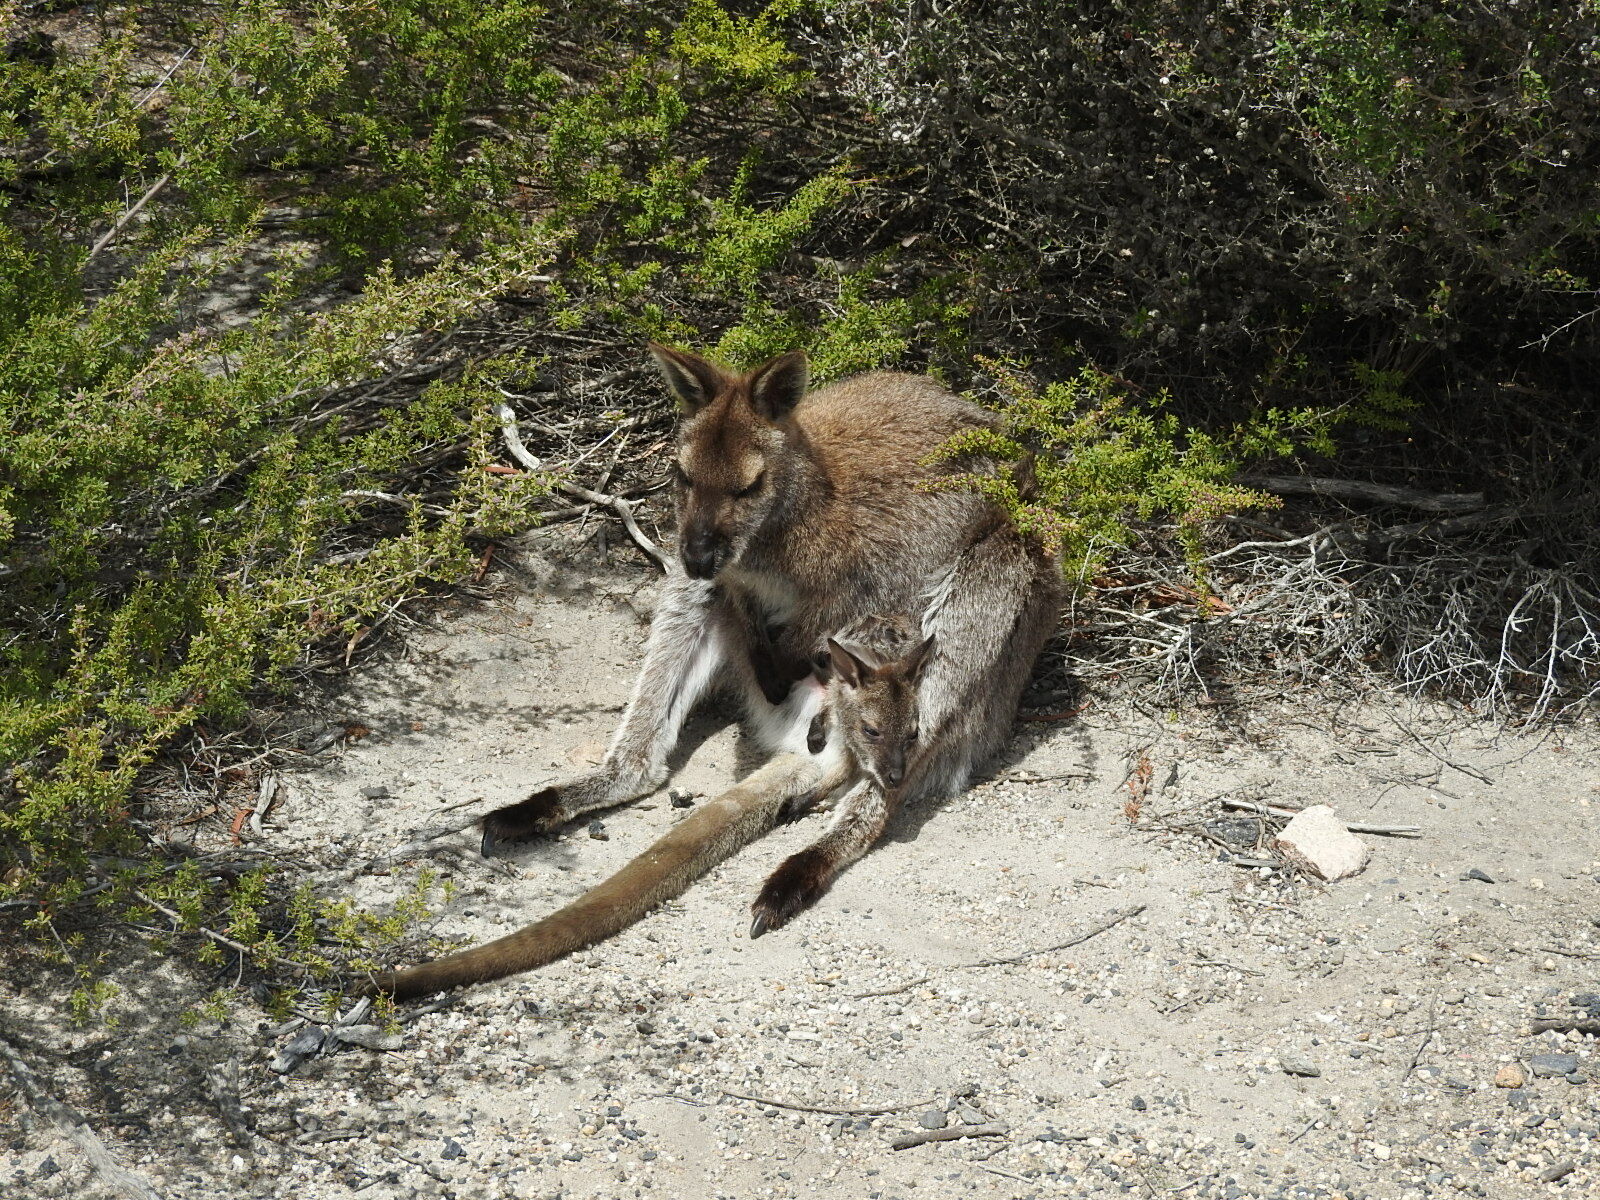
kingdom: Animalia
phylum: Chordata
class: Mammalia
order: Diprotodontia
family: Macropodidae
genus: Notamacropus
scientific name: Notamacropus rufogriseus
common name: Red-necked wallaby
